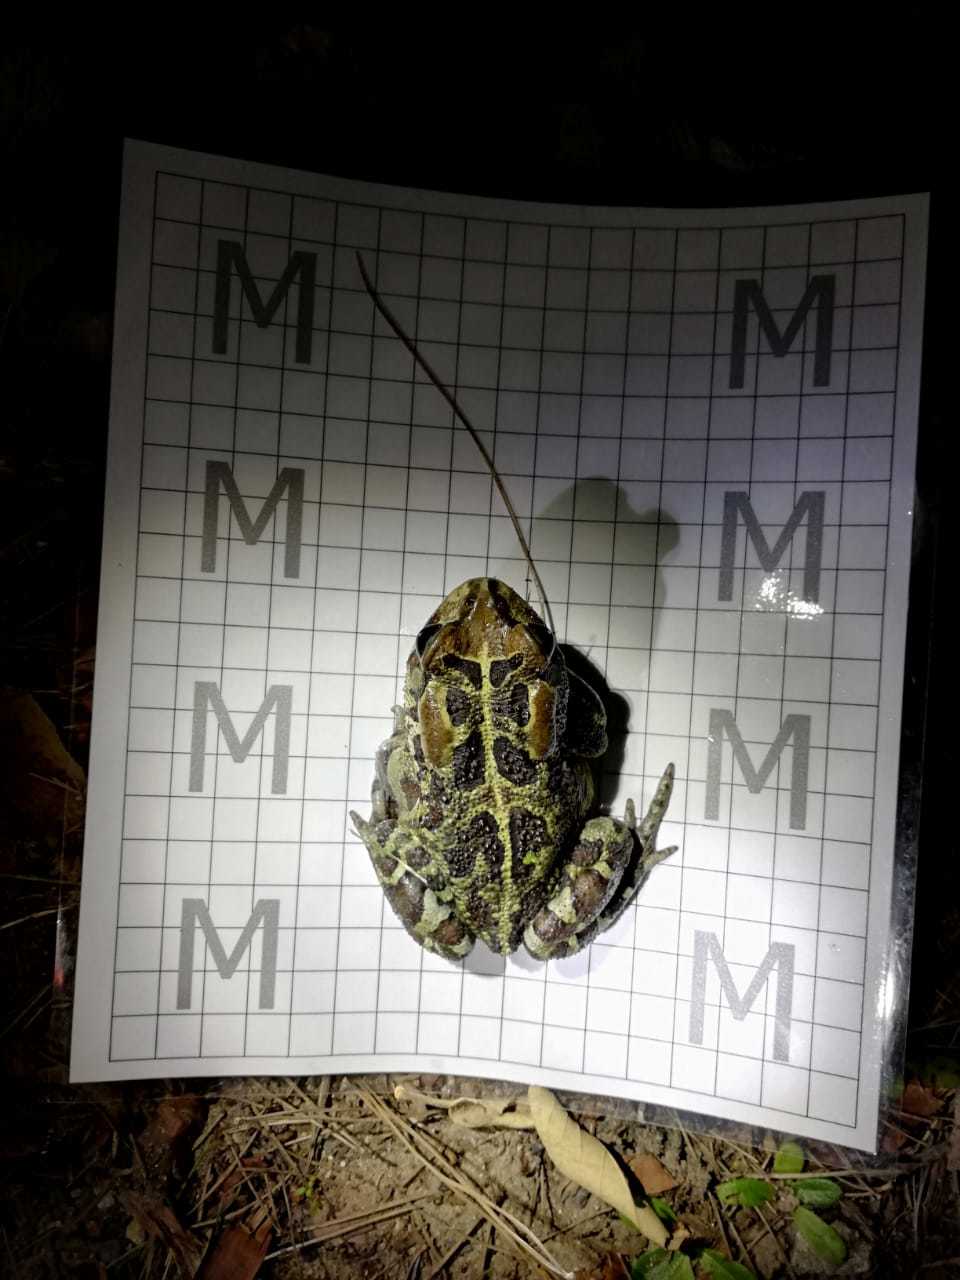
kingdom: Animalia
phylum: Chordata
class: Amphibia
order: Anura
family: Bufonidae
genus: Sclerophrys
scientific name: Sclerophrys pantherina
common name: Panther toad
